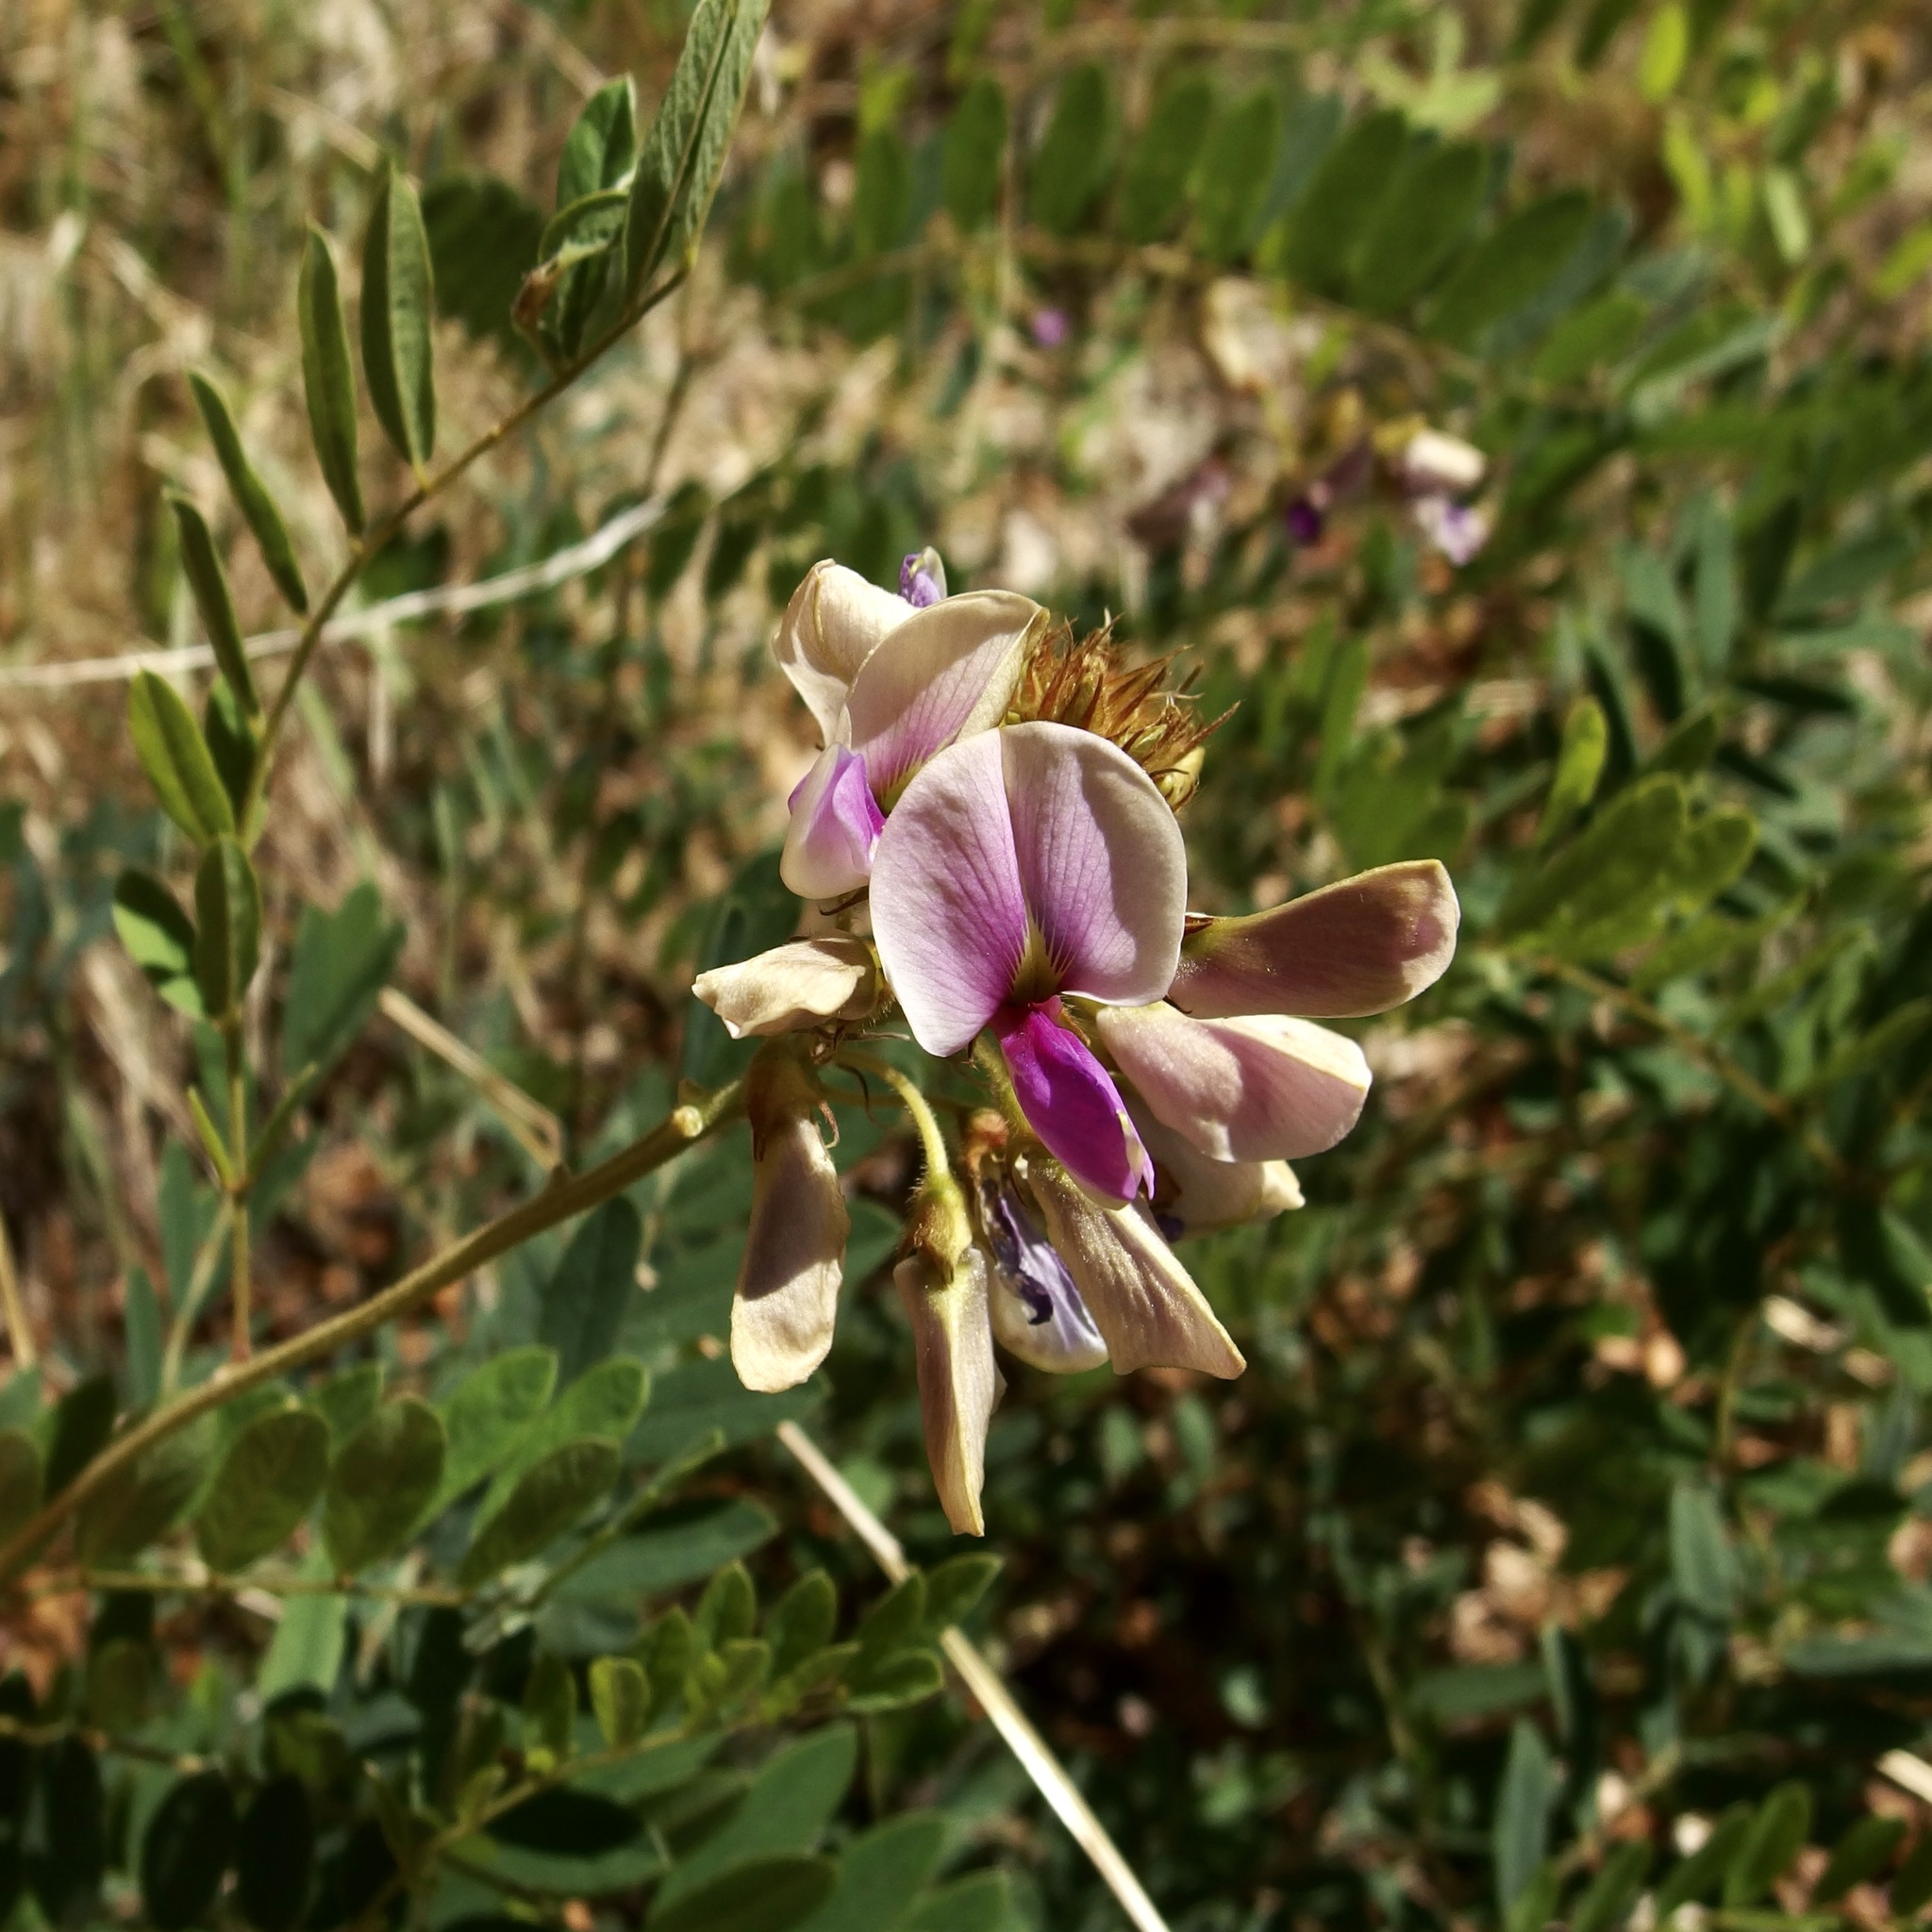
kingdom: Plantae
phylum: Tracheophyta
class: Magnoliopsida
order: Fabales
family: Fabaceae
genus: Tephrosia
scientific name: Tephrosia thurberi
